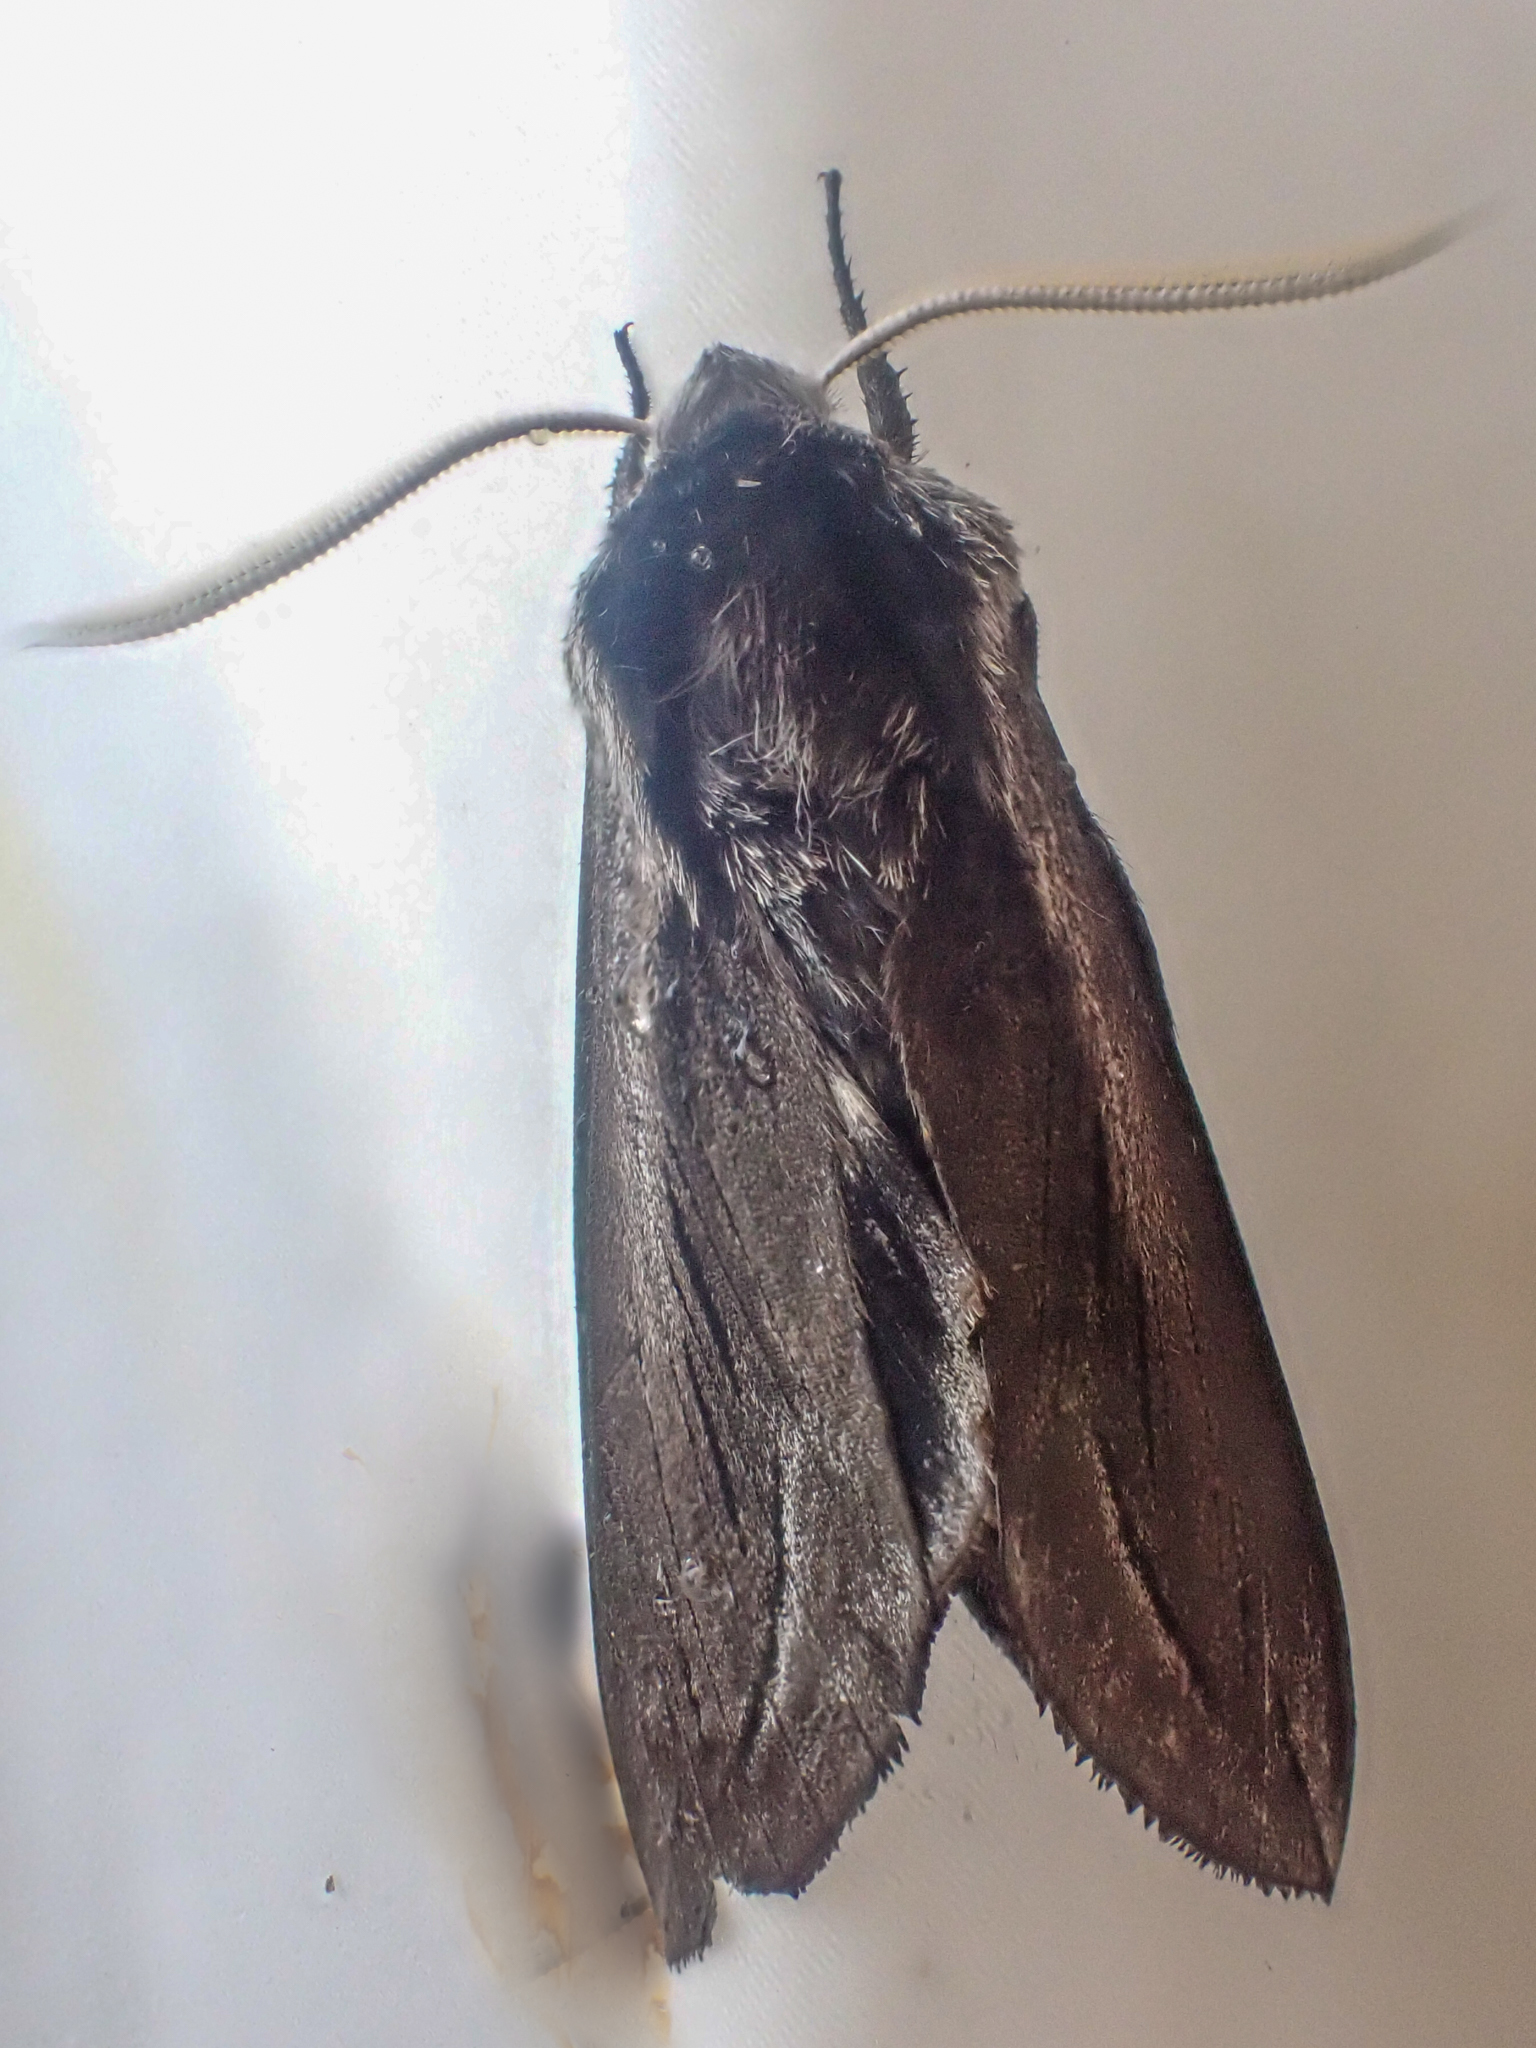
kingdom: Animalia
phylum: Arthropoda
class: Insecta
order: Lepidoptera
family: Sphingidae
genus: Sphinx
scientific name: Sphinx vashti
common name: Snowberry sphinx
